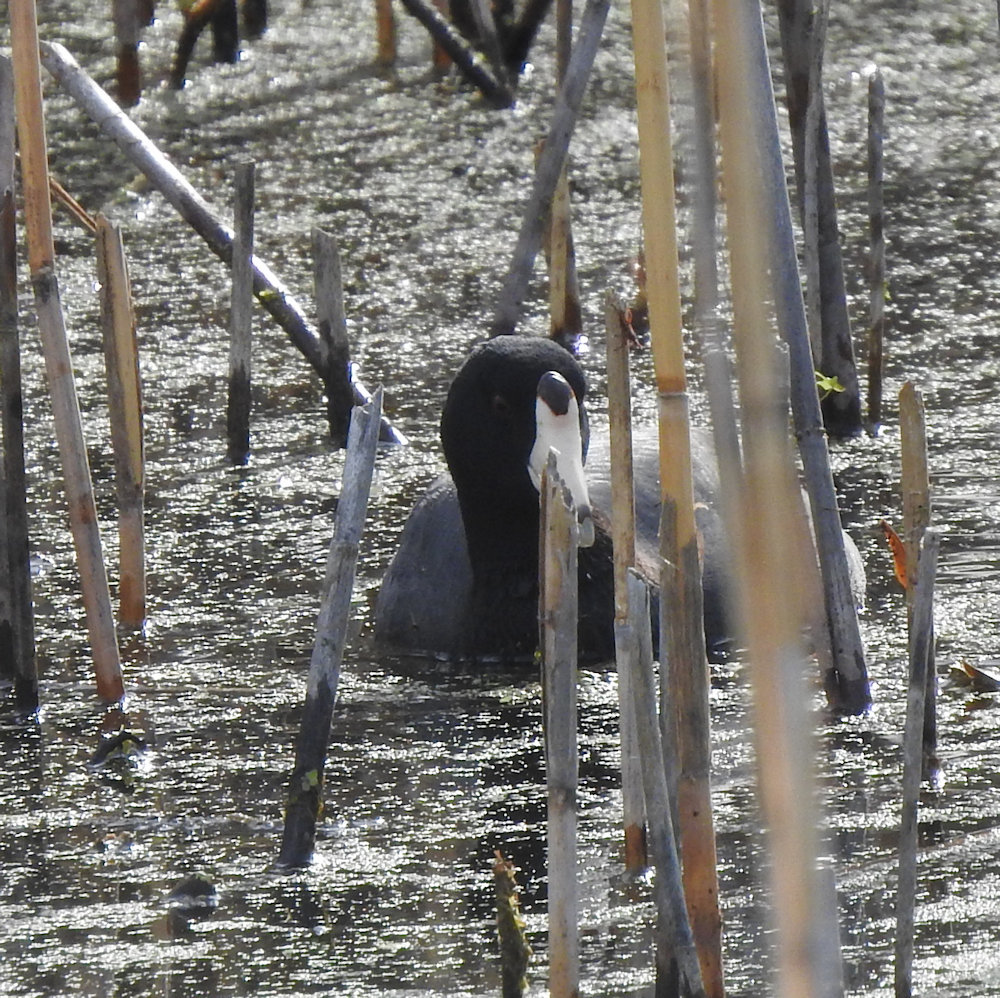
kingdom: Animalia
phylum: Chordata
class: Aves
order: Gruiformes
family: Rallidae
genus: Fulica
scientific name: Fulica americana
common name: American coot
